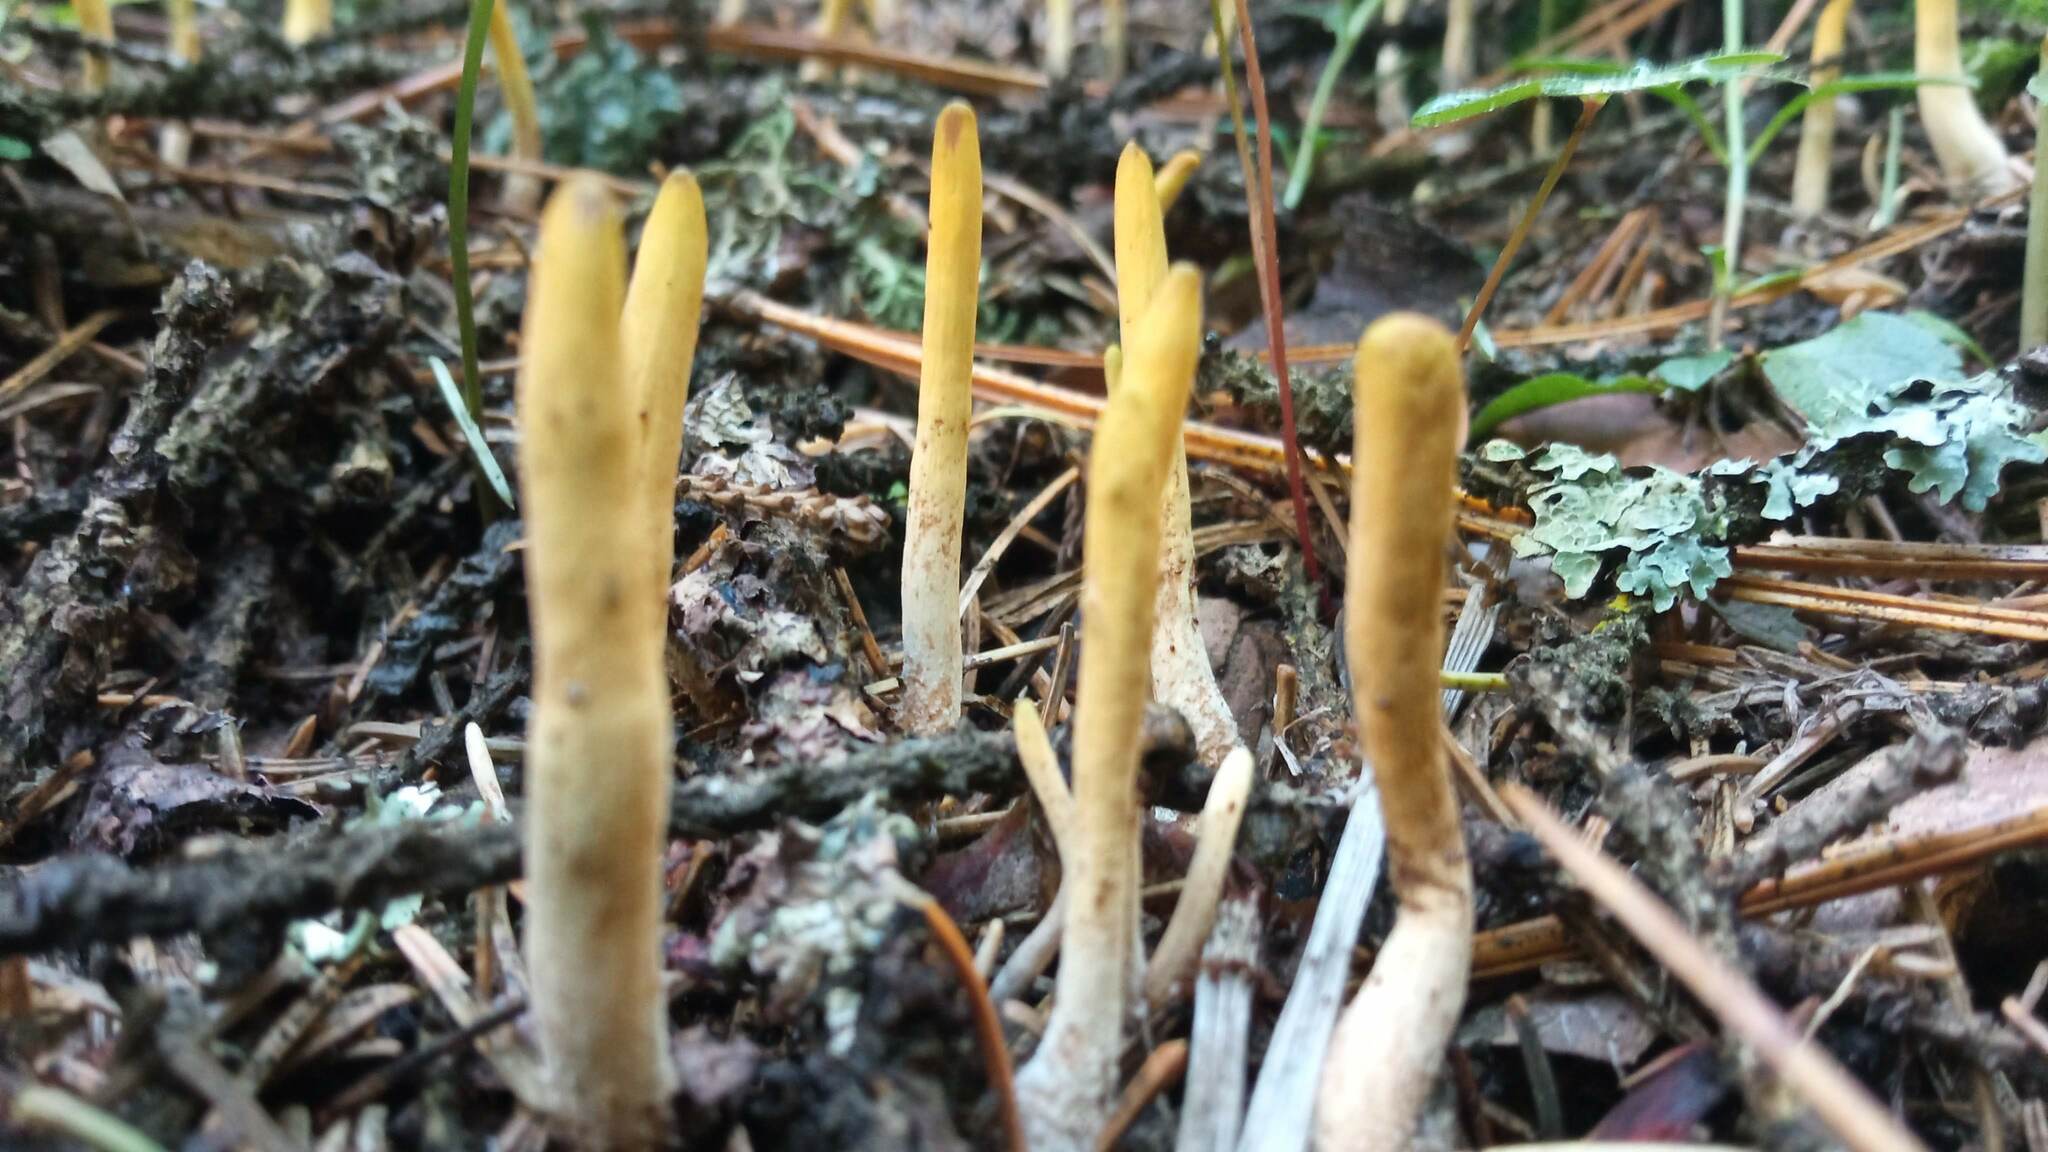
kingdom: Fungi
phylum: Basidiomycota
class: Agaricomycetes
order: Gomphales
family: Clavariadelphaceae
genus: Clavariadelphus
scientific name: Clavariadelphus ligula
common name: Ochre club
